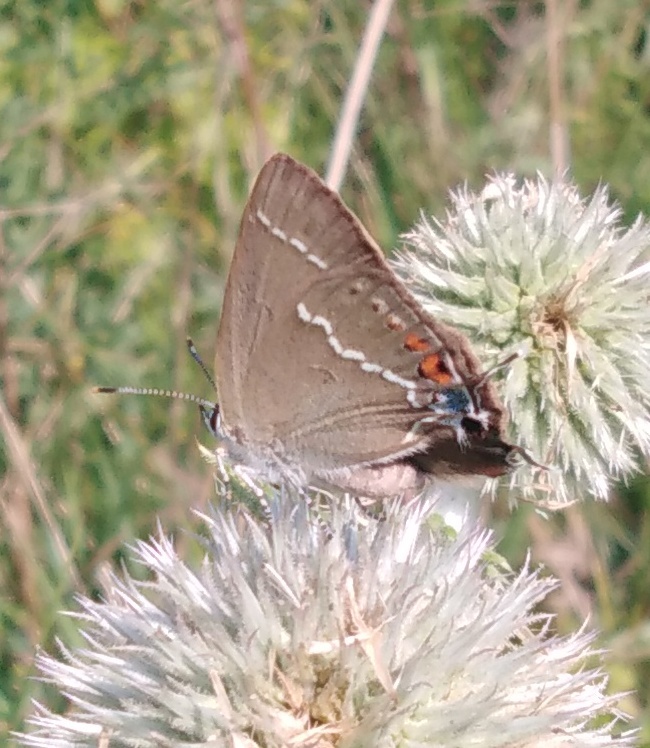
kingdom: Animalia
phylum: Arthropoda
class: Insecta
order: Lepidoptera
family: Lycaenidae
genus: Tuttiola
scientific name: Tuttiola spini
